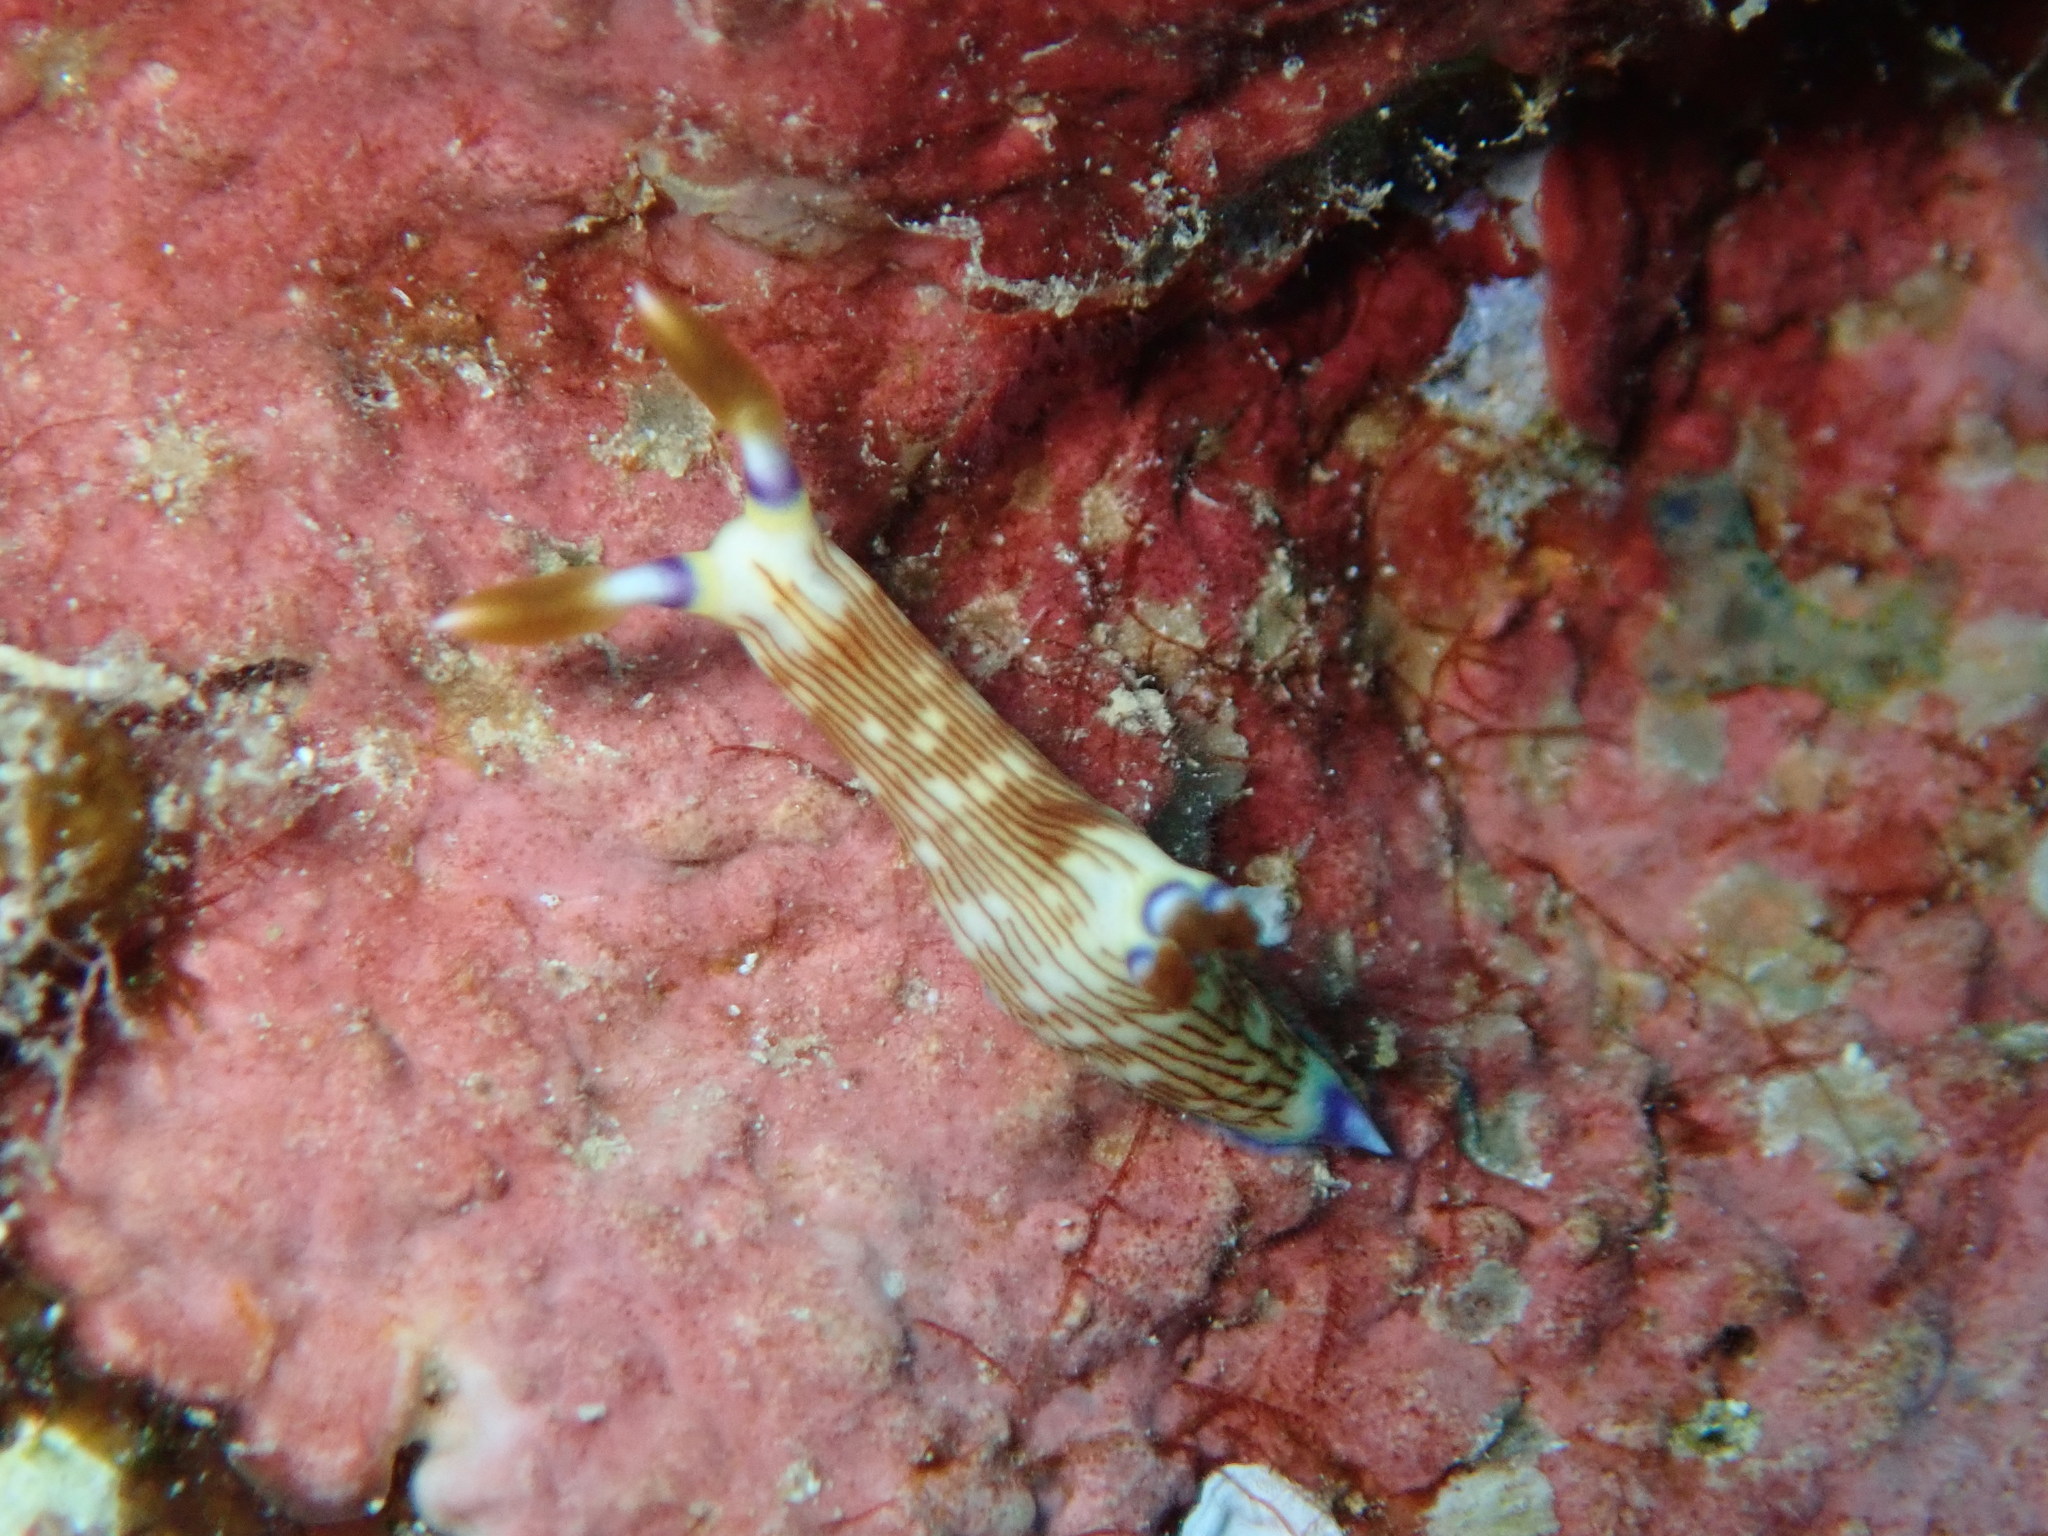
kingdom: Animalia
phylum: Mollusca
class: Gastropoda
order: Nudibranchia
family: Polyceridae
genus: Nembrotha
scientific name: Nembrotha lineolata
